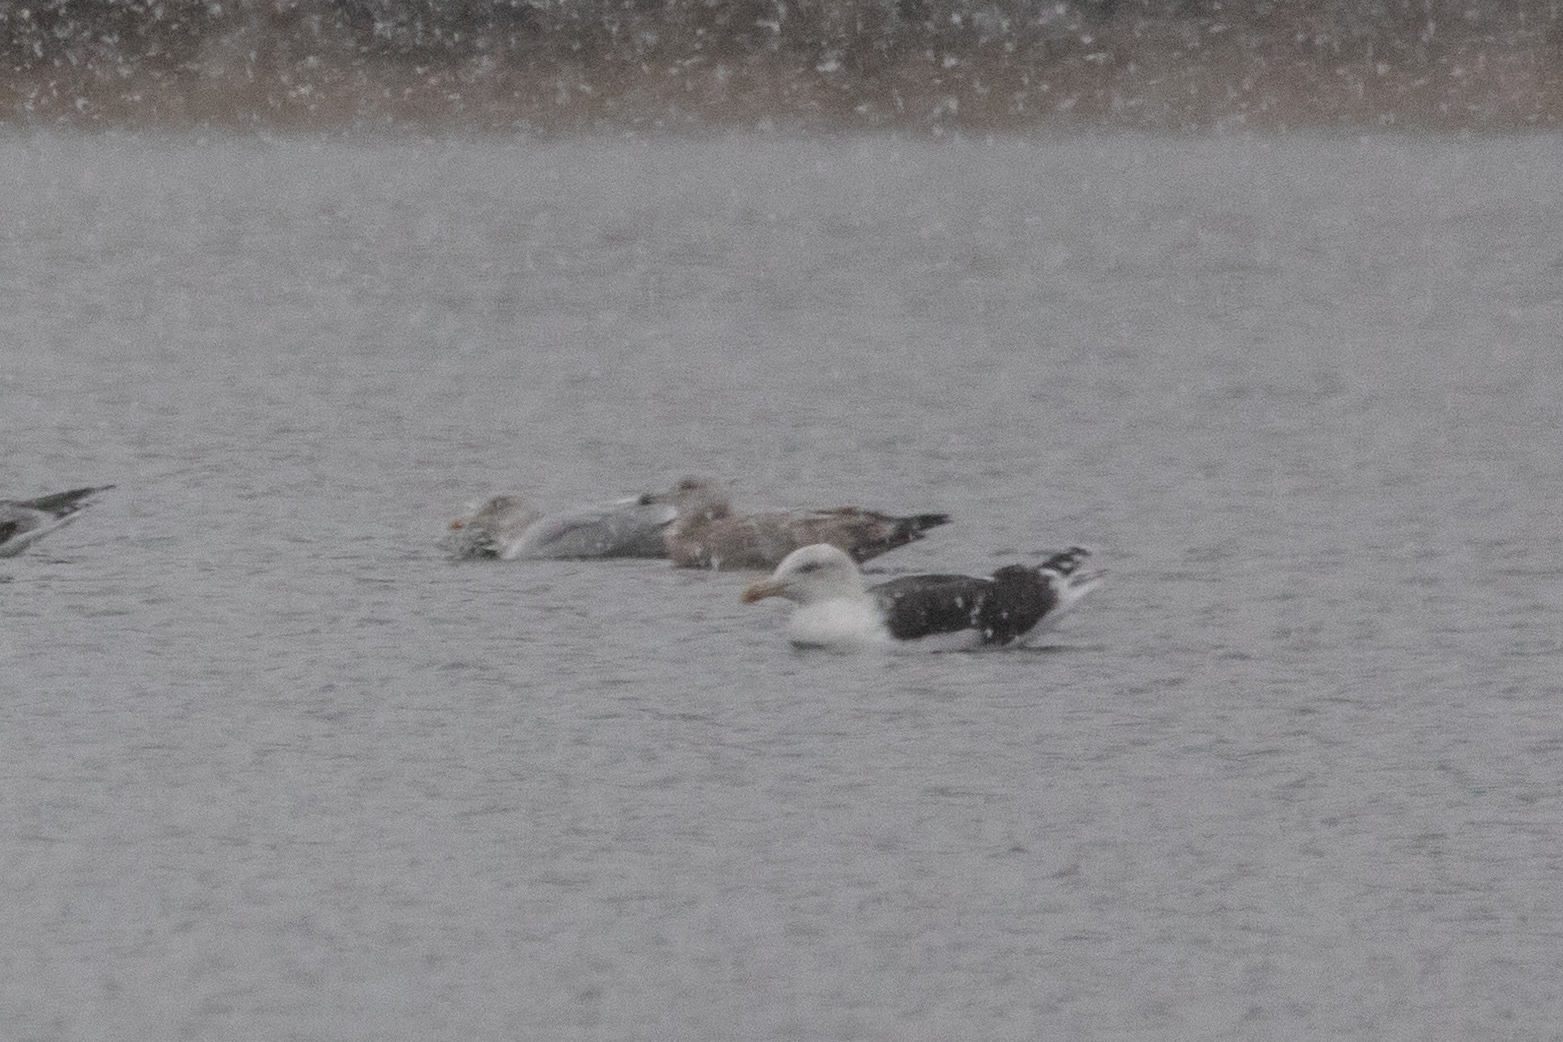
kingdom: Animalia
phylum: Chordata
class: Aves
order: Charadriiformes
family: Laridae
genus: Larus
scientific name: Larus marinus
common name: Great black-backed gull
